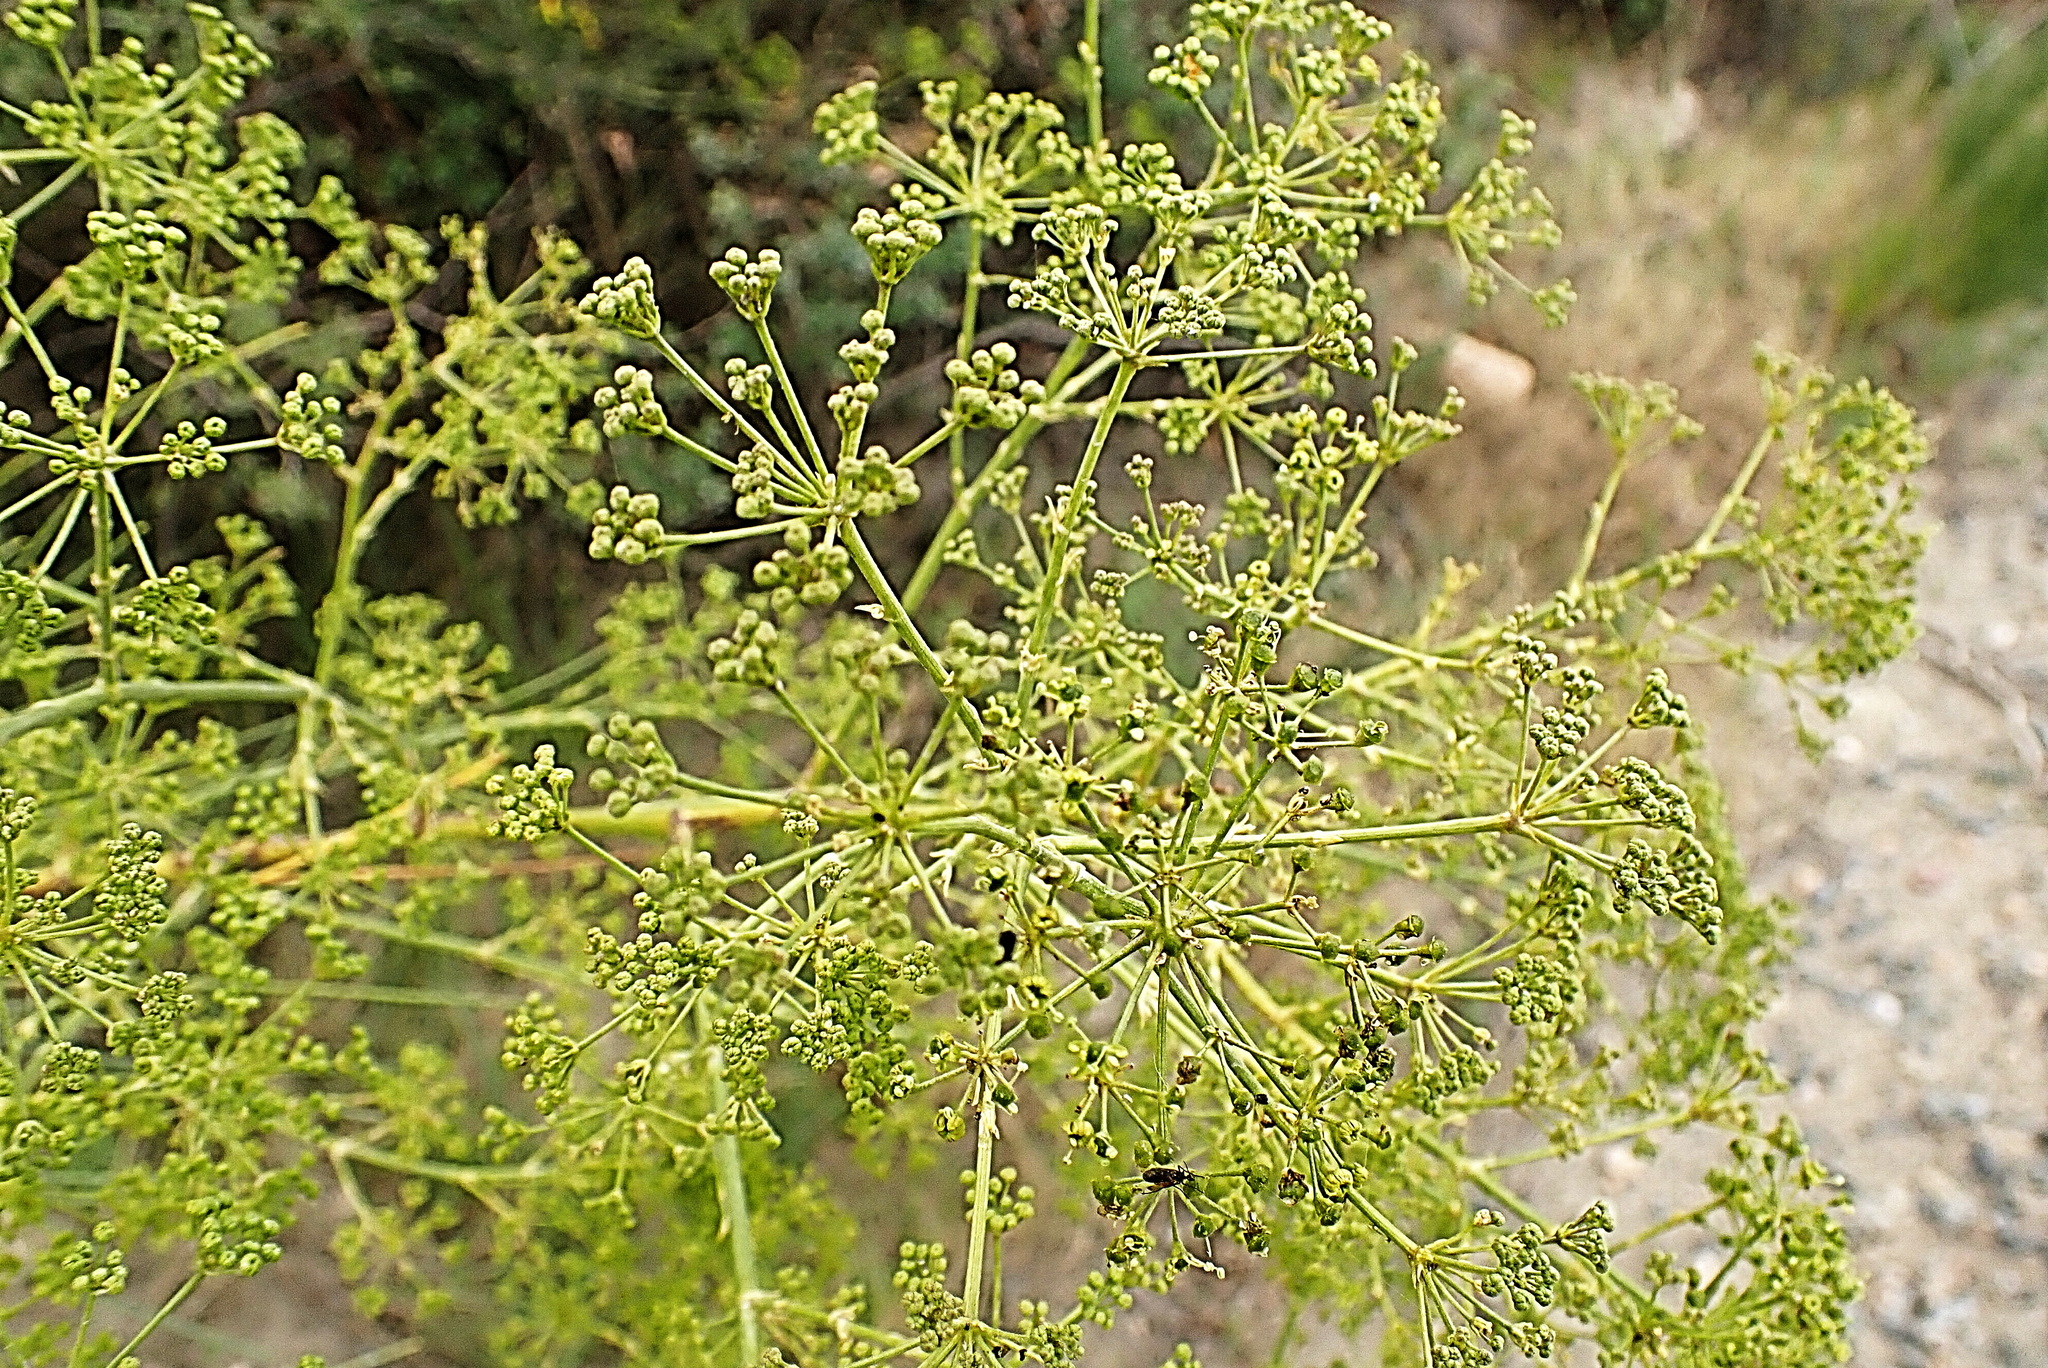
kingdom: Plantae
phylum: Tracheophyta
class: Magnoliopsida
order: Apiales
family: Apiaceae
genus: Anginon
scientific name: Anginon difforme
